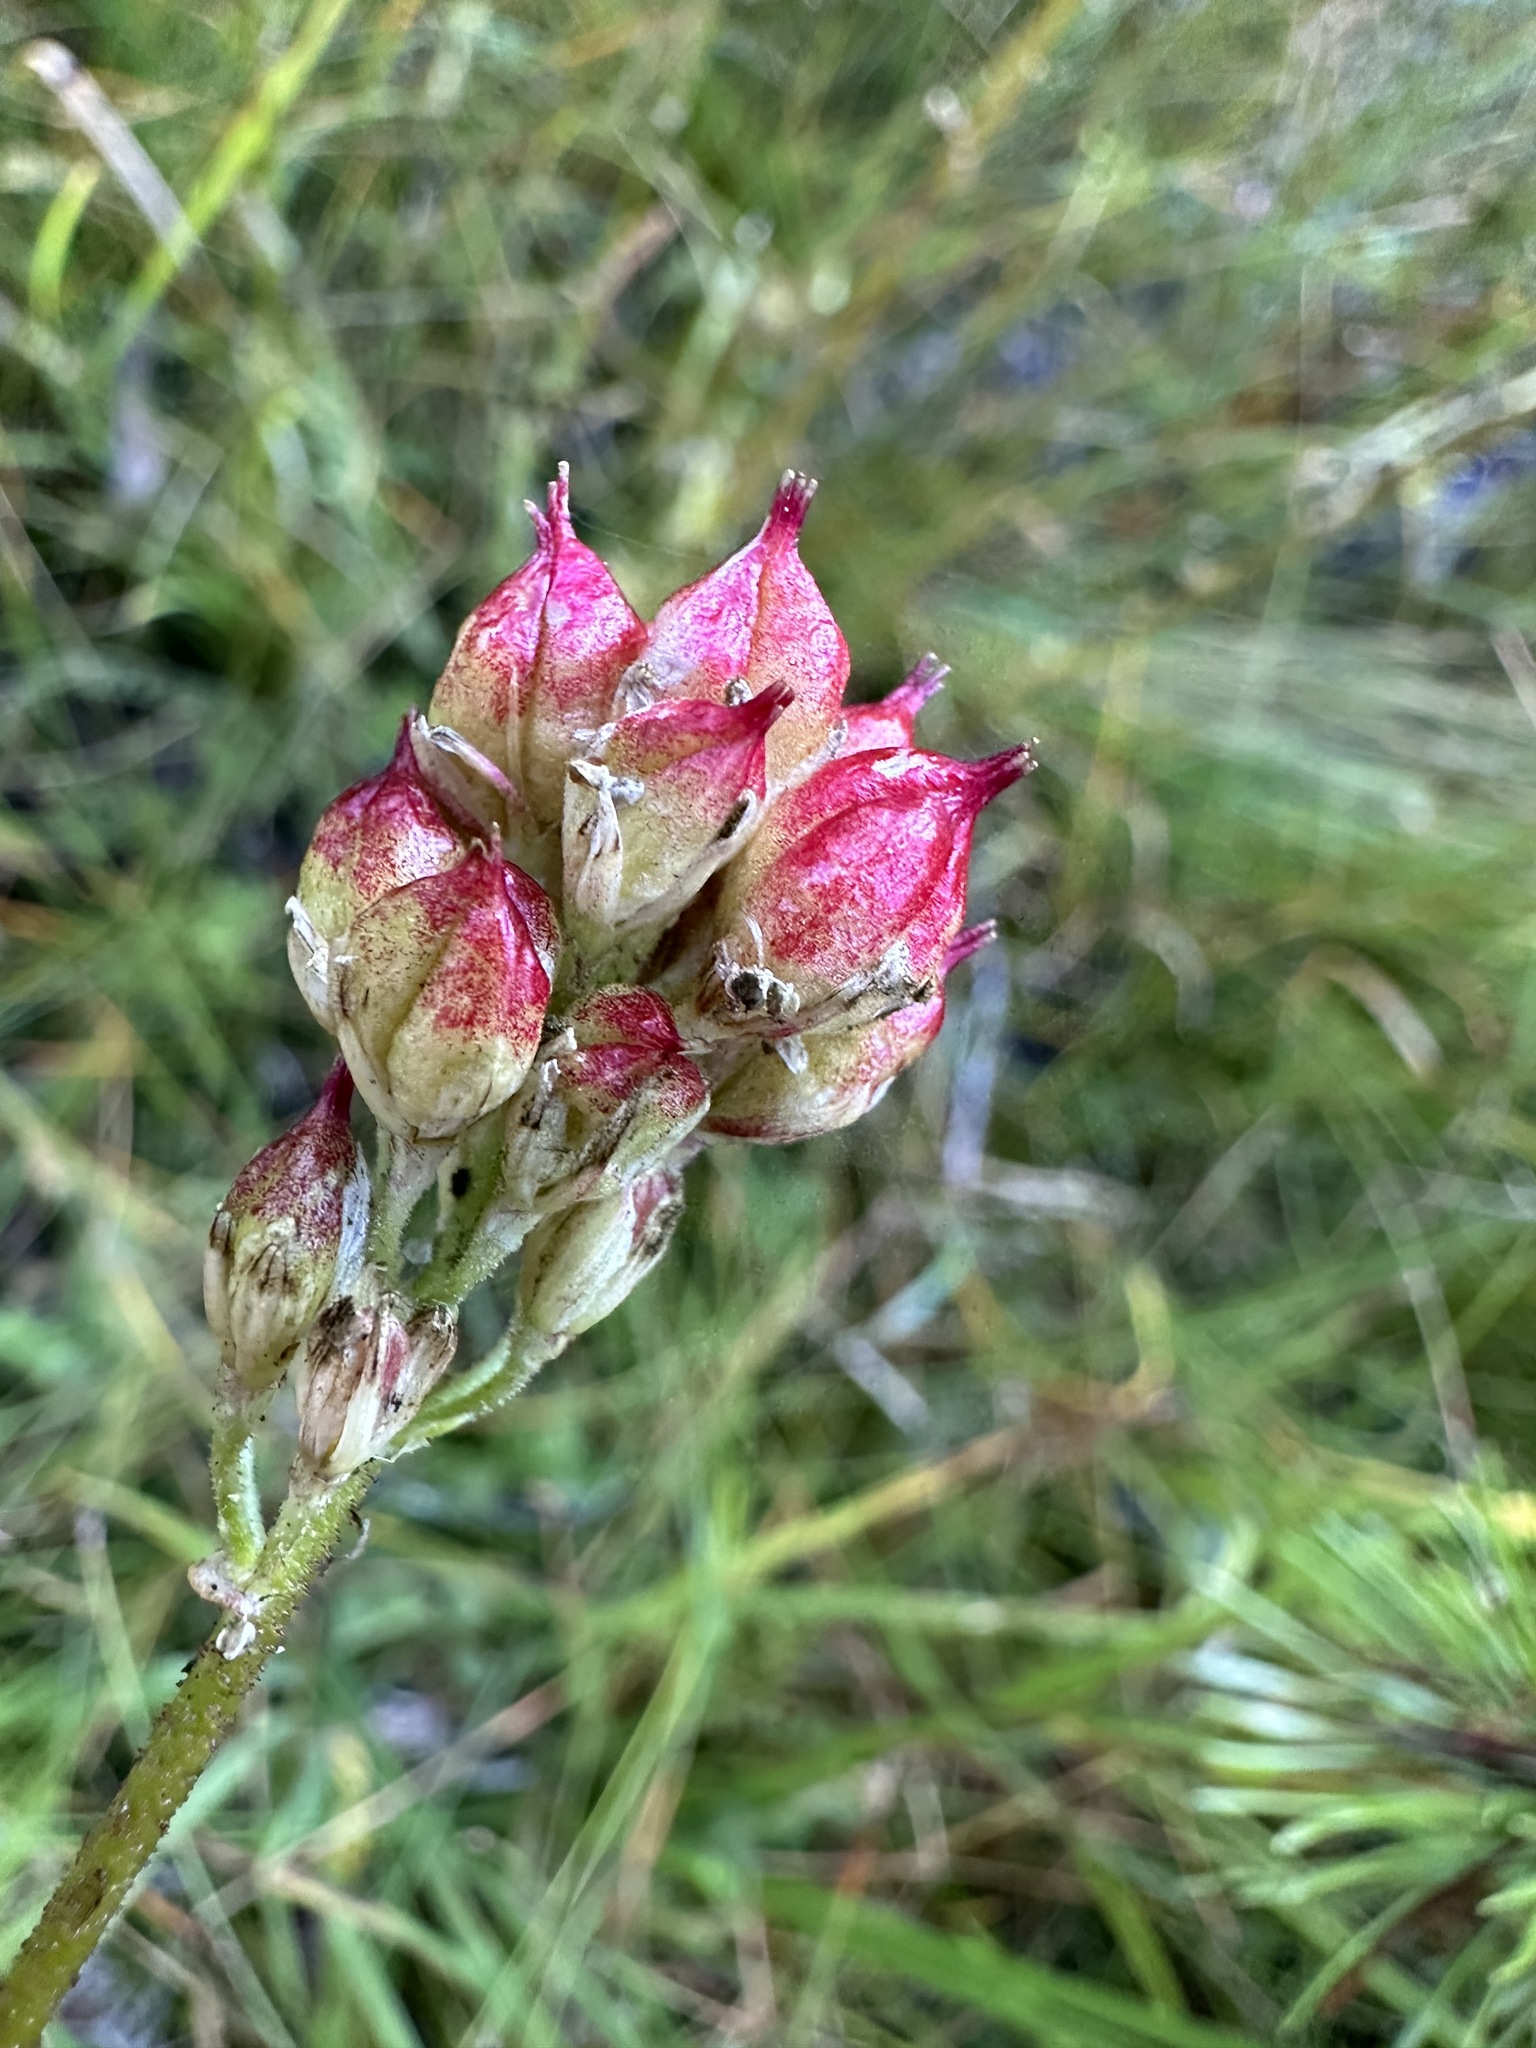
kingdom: Plantae
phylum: Tracheophyta
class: Liliopsida
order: Alismatales
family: Tofieldiaceae
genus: Triantha
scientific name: Triantha occidentalis
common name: Western false asphodel
